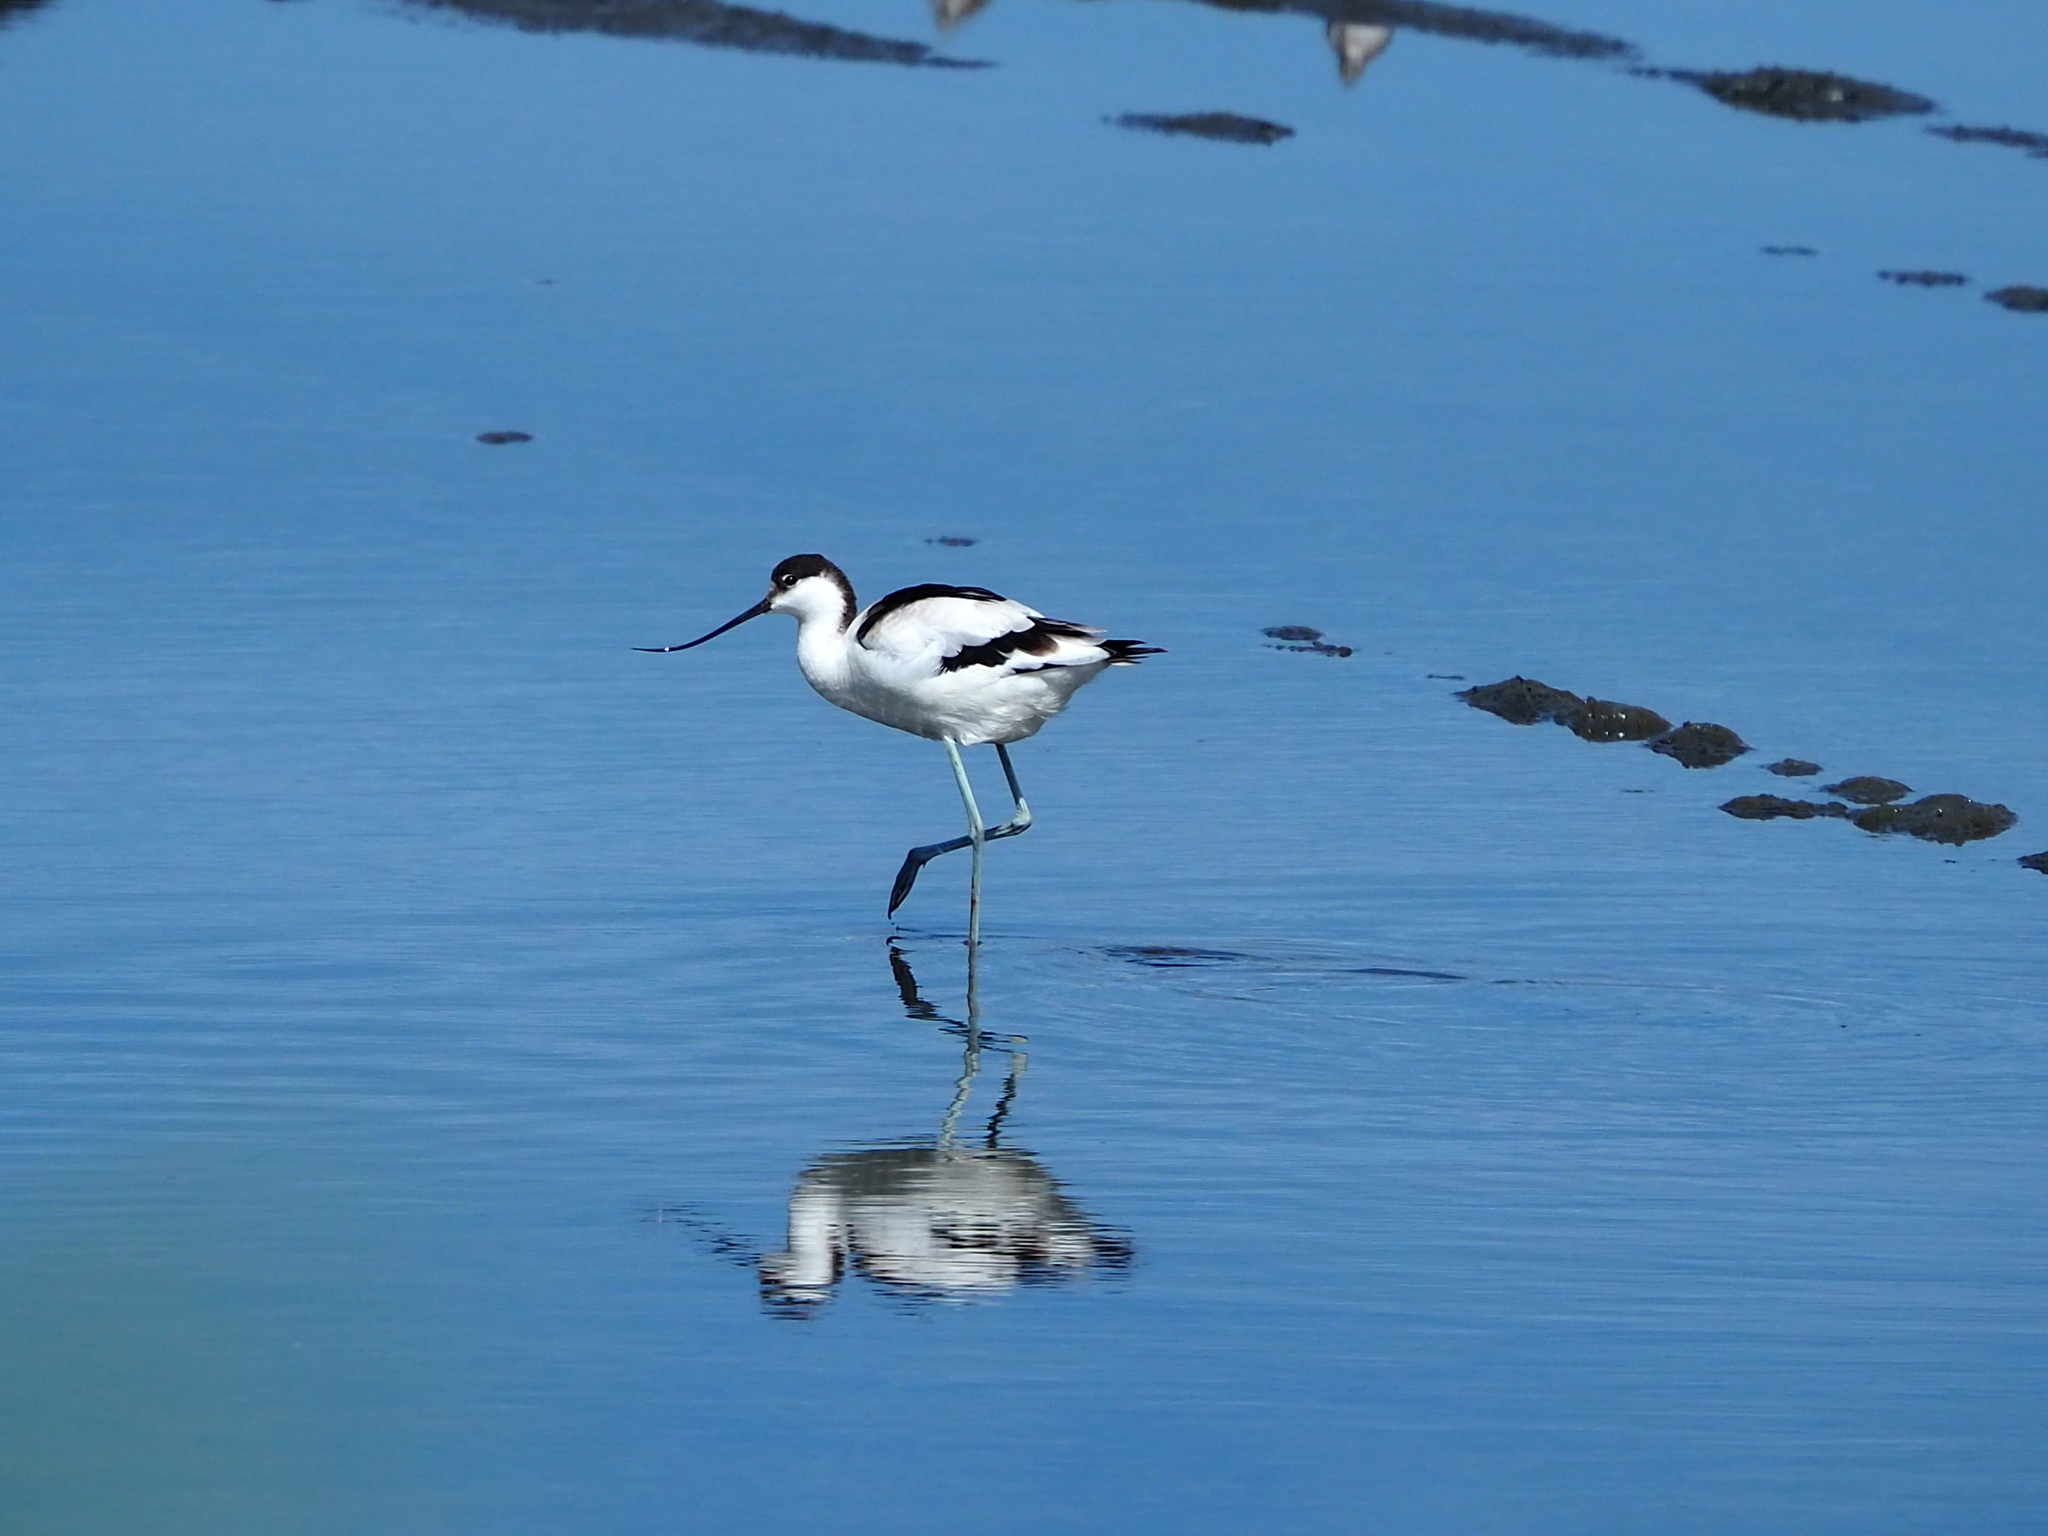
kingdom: Animalia
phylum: Chordata
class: Aves
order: Charadriiformes
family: Recurvirostridae
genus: Recurvirostra
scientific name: Recurvirostra avosetta
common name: Pied avocet
